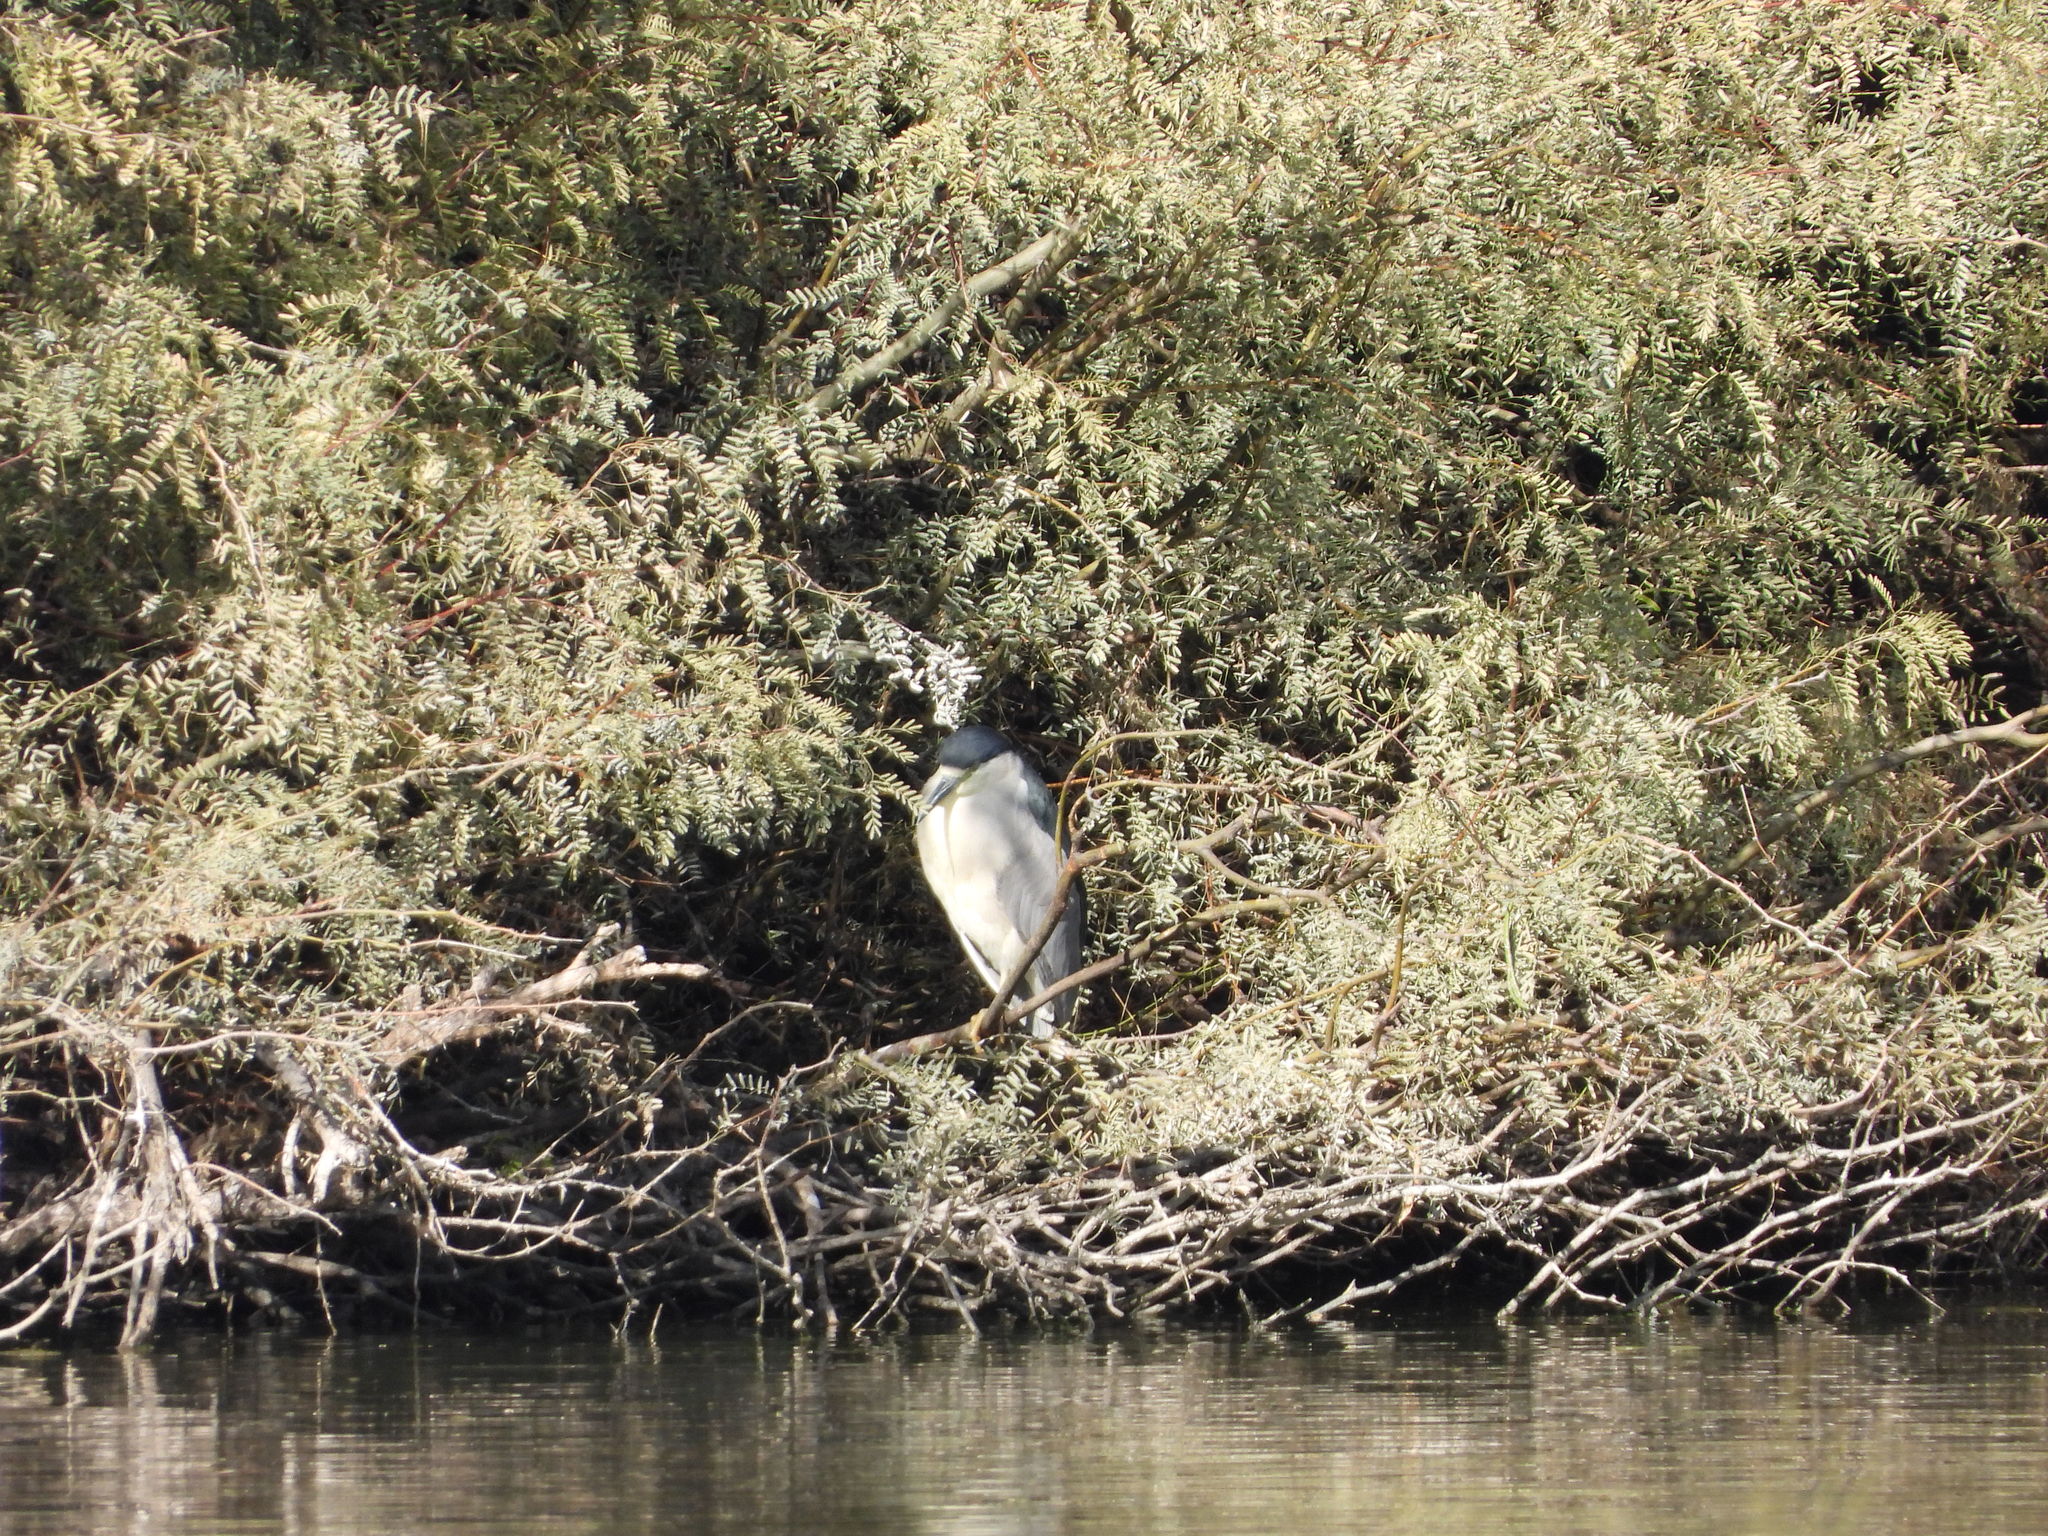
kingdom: Animalia
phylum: Chordata
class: Aves
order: Pelecaniformes
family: Ardeidae
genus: Nycticorax
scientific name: Nycticorax nycticorax
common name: Black-crowned night heron
